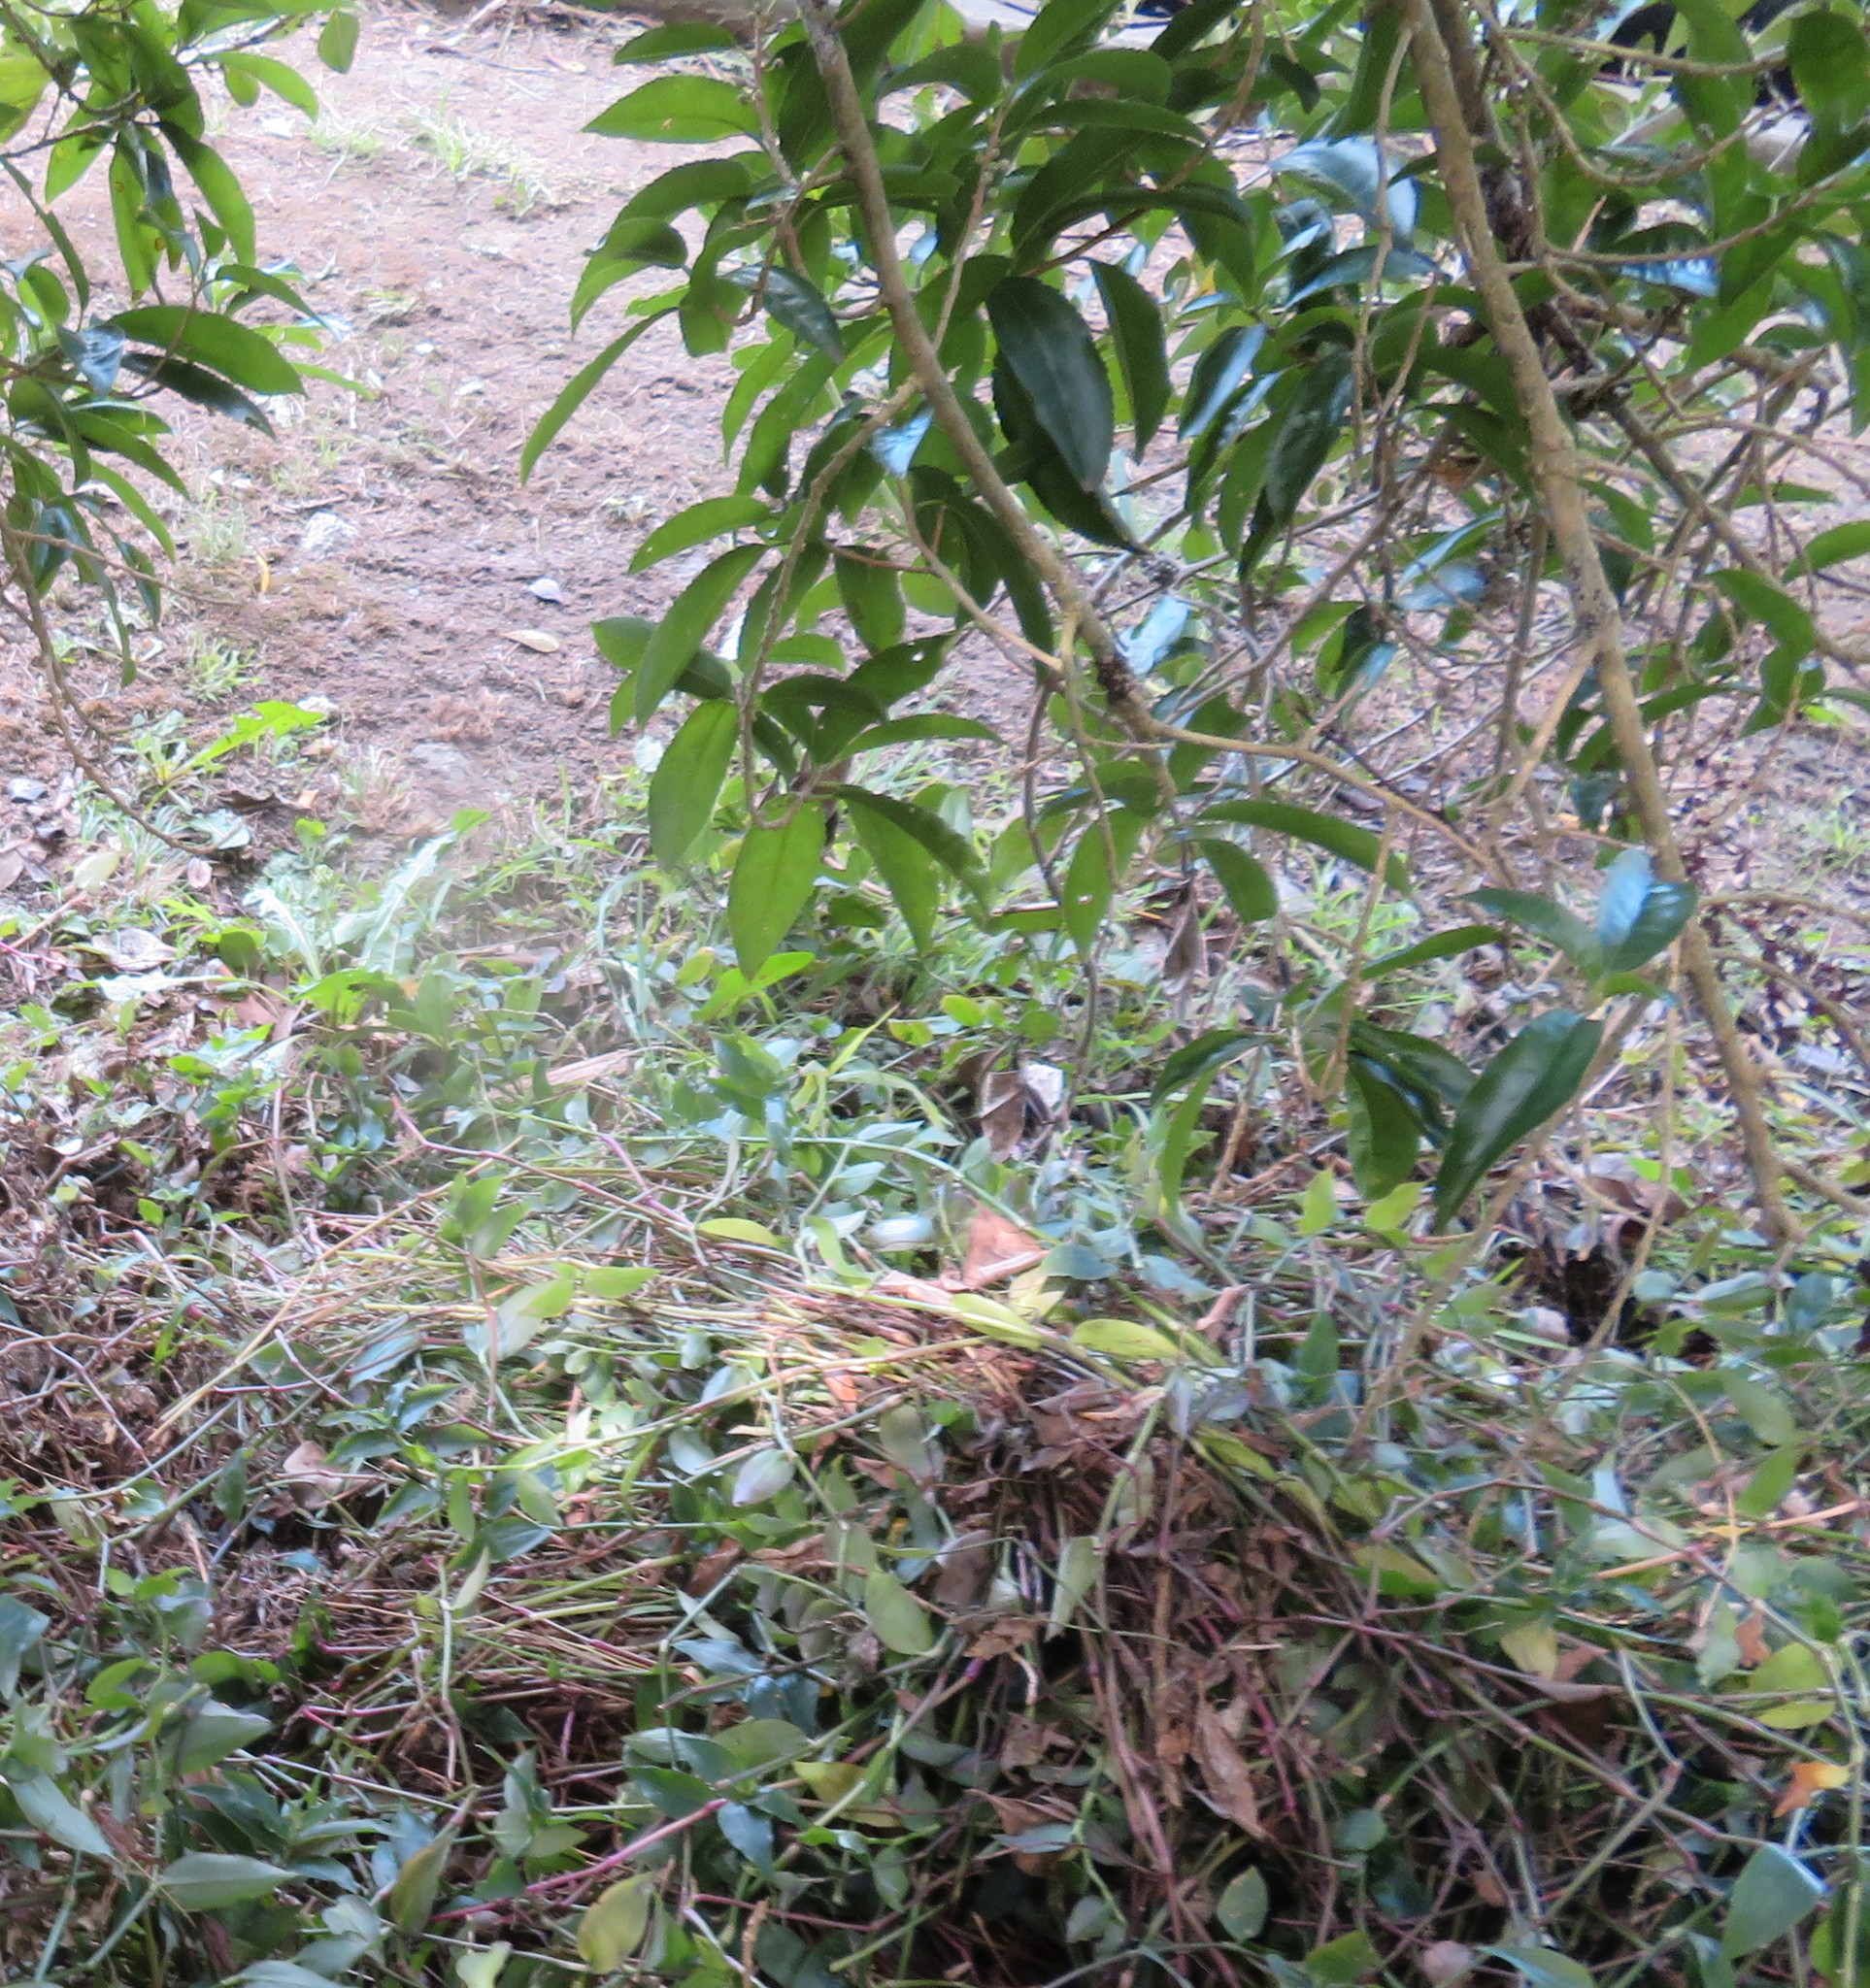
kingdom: Plantae
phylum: Tracheophyta
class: Magnoliopsida
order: Malpighiales
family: Violaceae
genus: Melicytus
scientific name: Melicytus ramiflorus
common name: Mahoe
